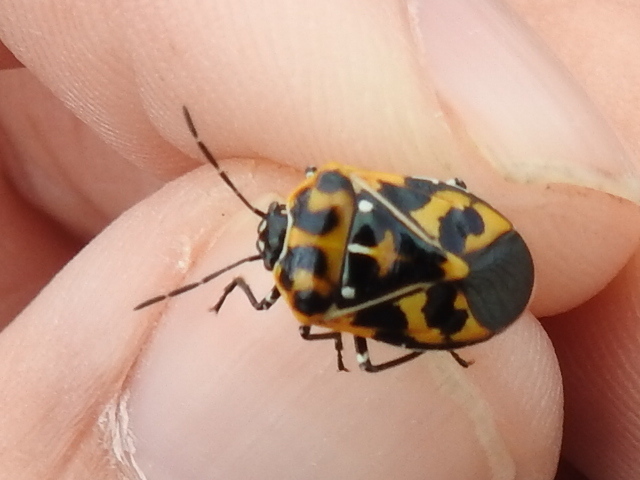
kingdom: Animalia
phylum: Arthropoda
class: Insecta
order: Hemiptera
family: Pentatomidae
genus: Murgantia
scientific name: Murgantia histrionica
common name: Harlequin bug
